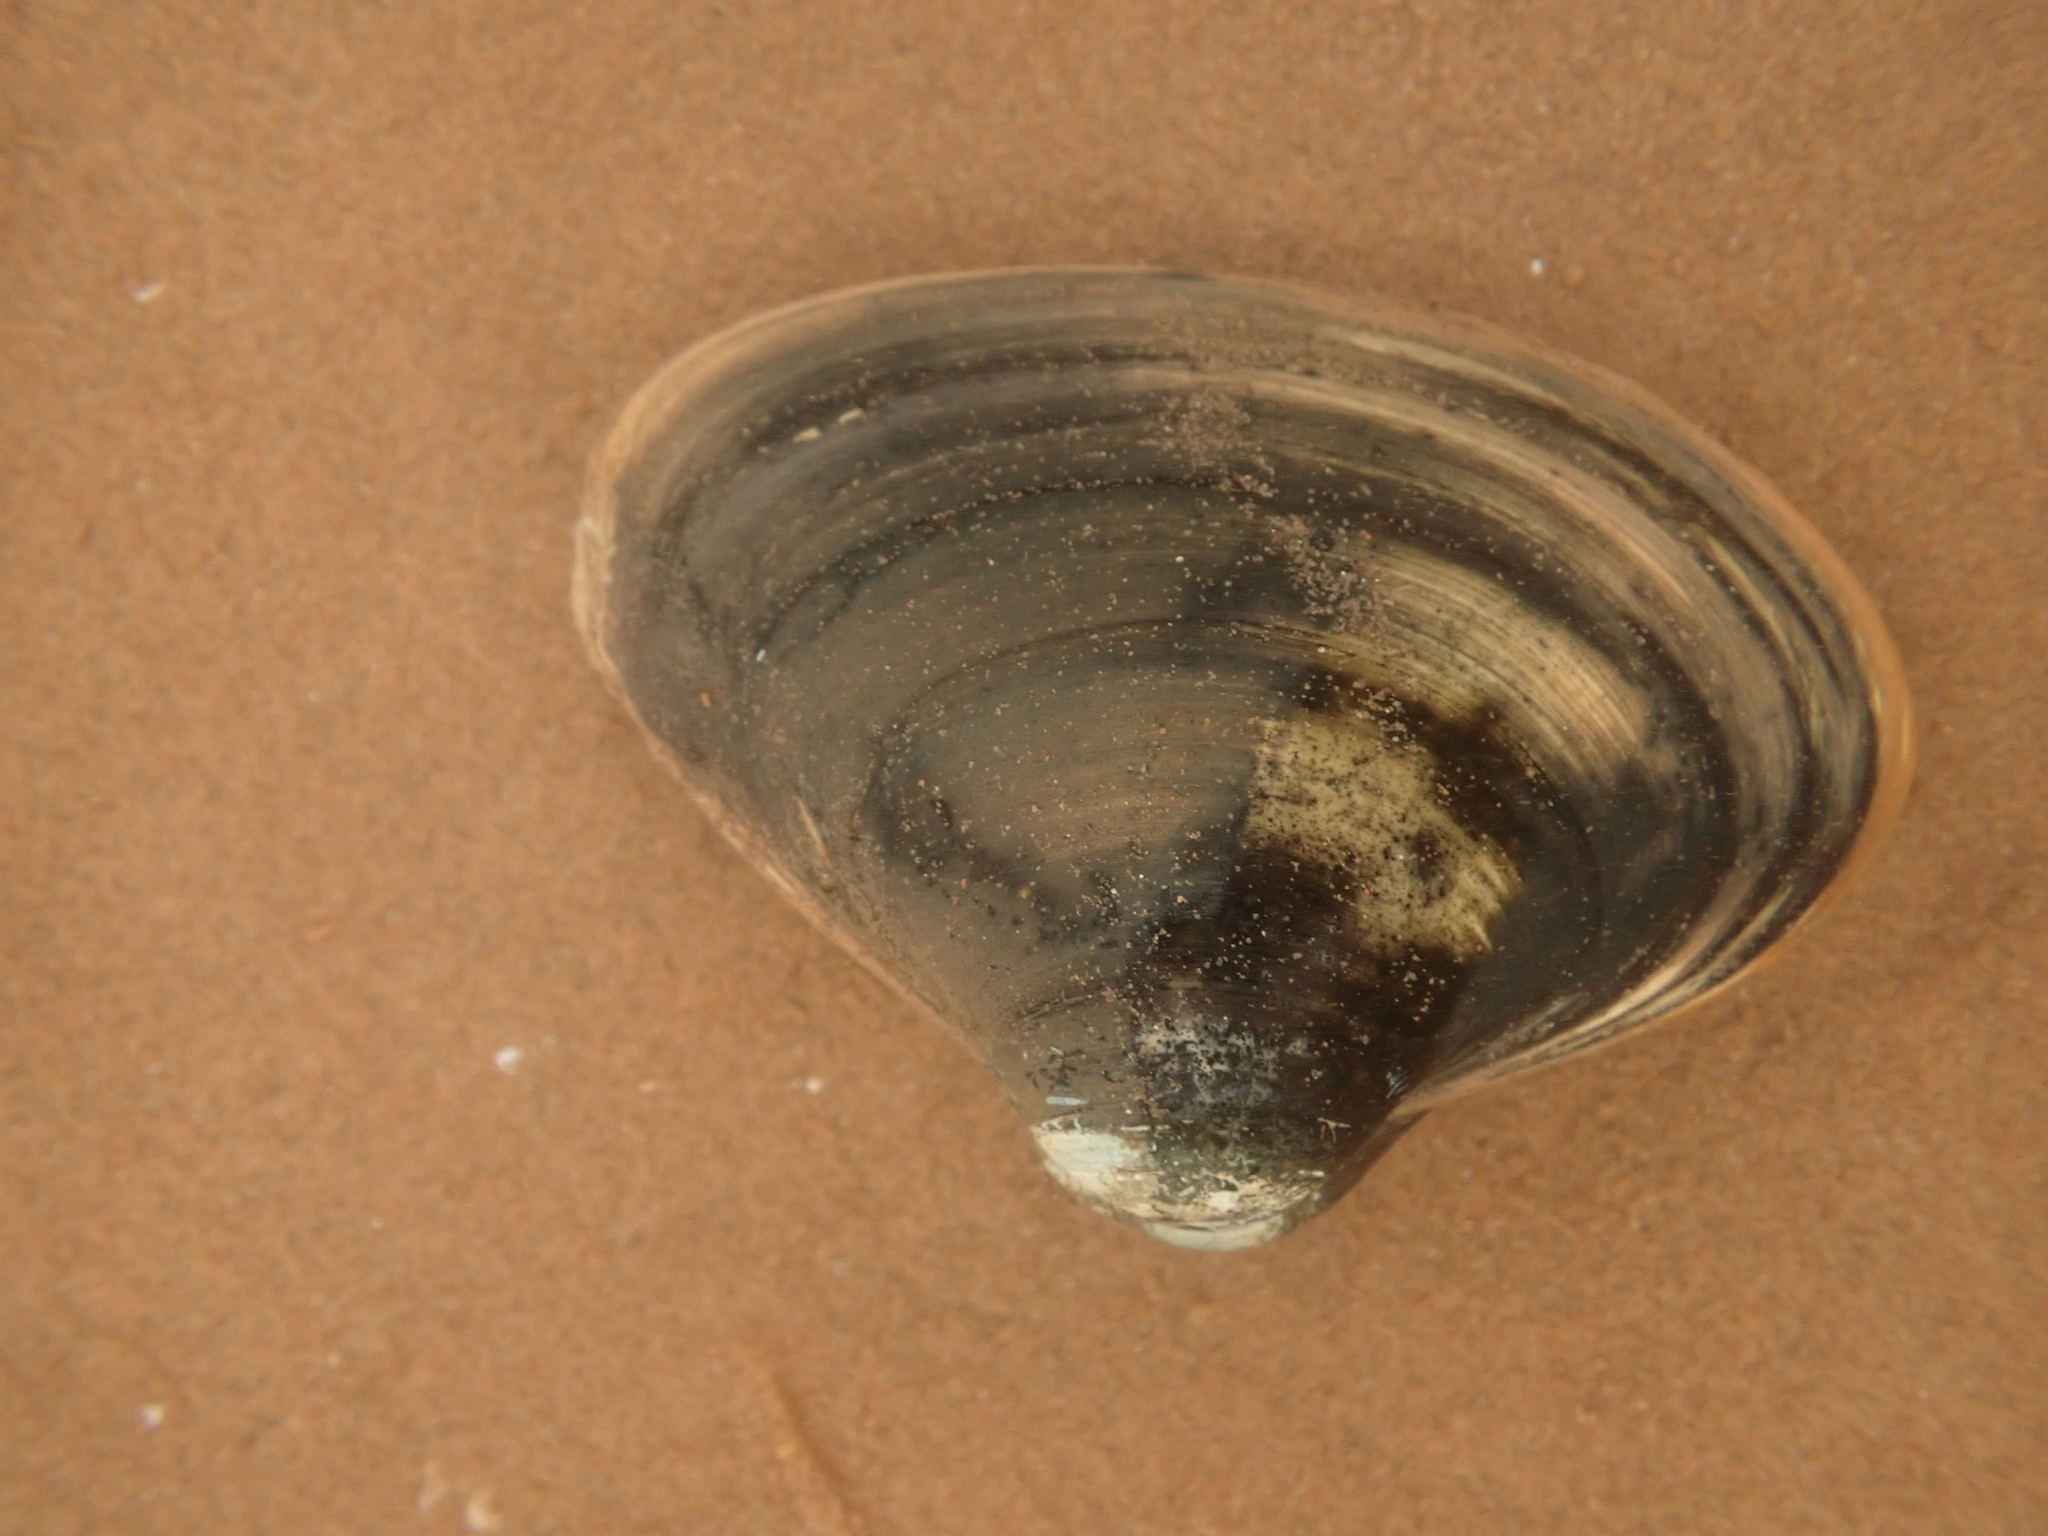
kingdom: Animalia
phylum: Mollusca
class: Bivalvia
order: Venerida
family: Mactridae
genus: Spisula
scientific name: Spisula solidissima
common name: Atlantic surf clam
